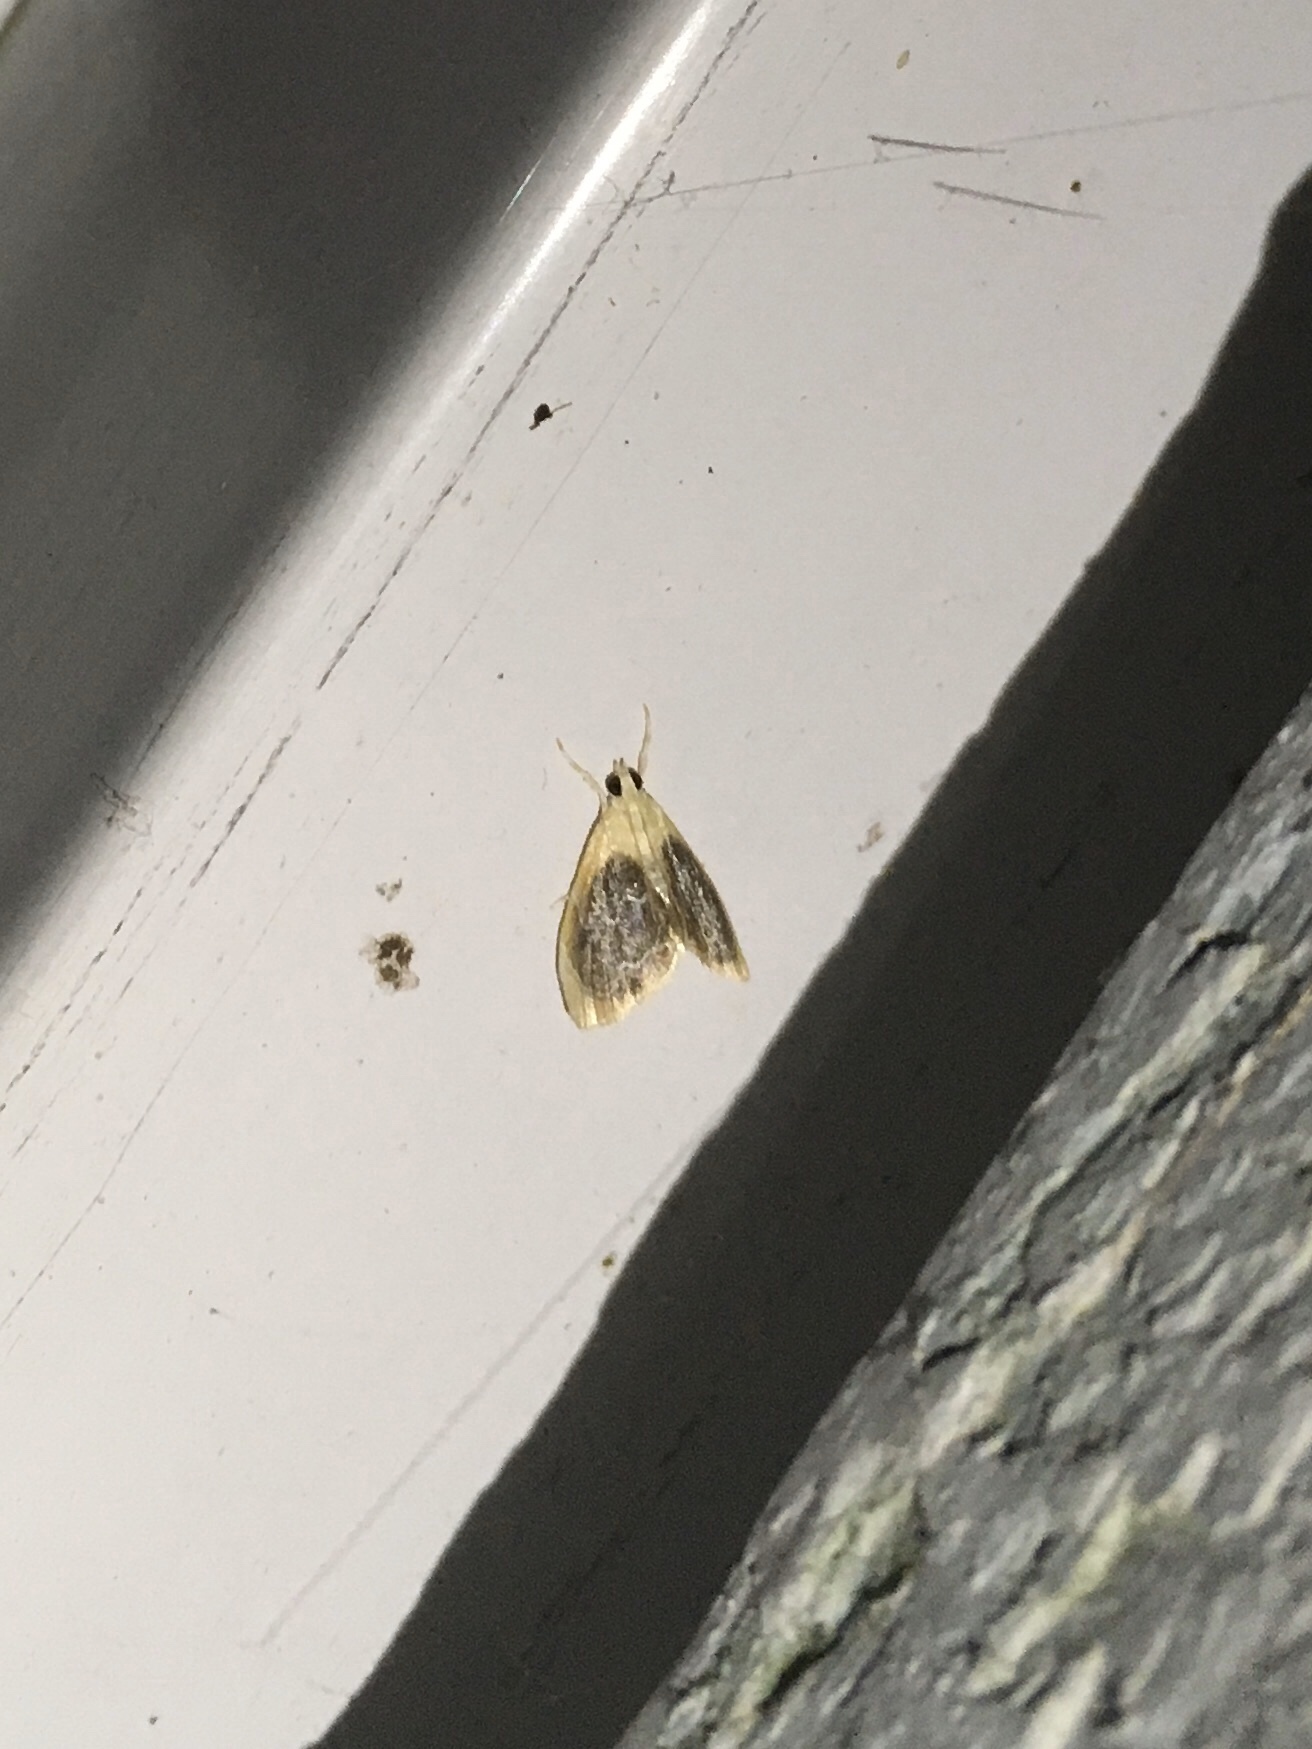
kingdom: Animalia
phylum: Arthropoda
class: Insecta
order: Lepidoptera
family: Crambidae
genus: Glaphyria
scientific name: Glaphyria fulminalis
